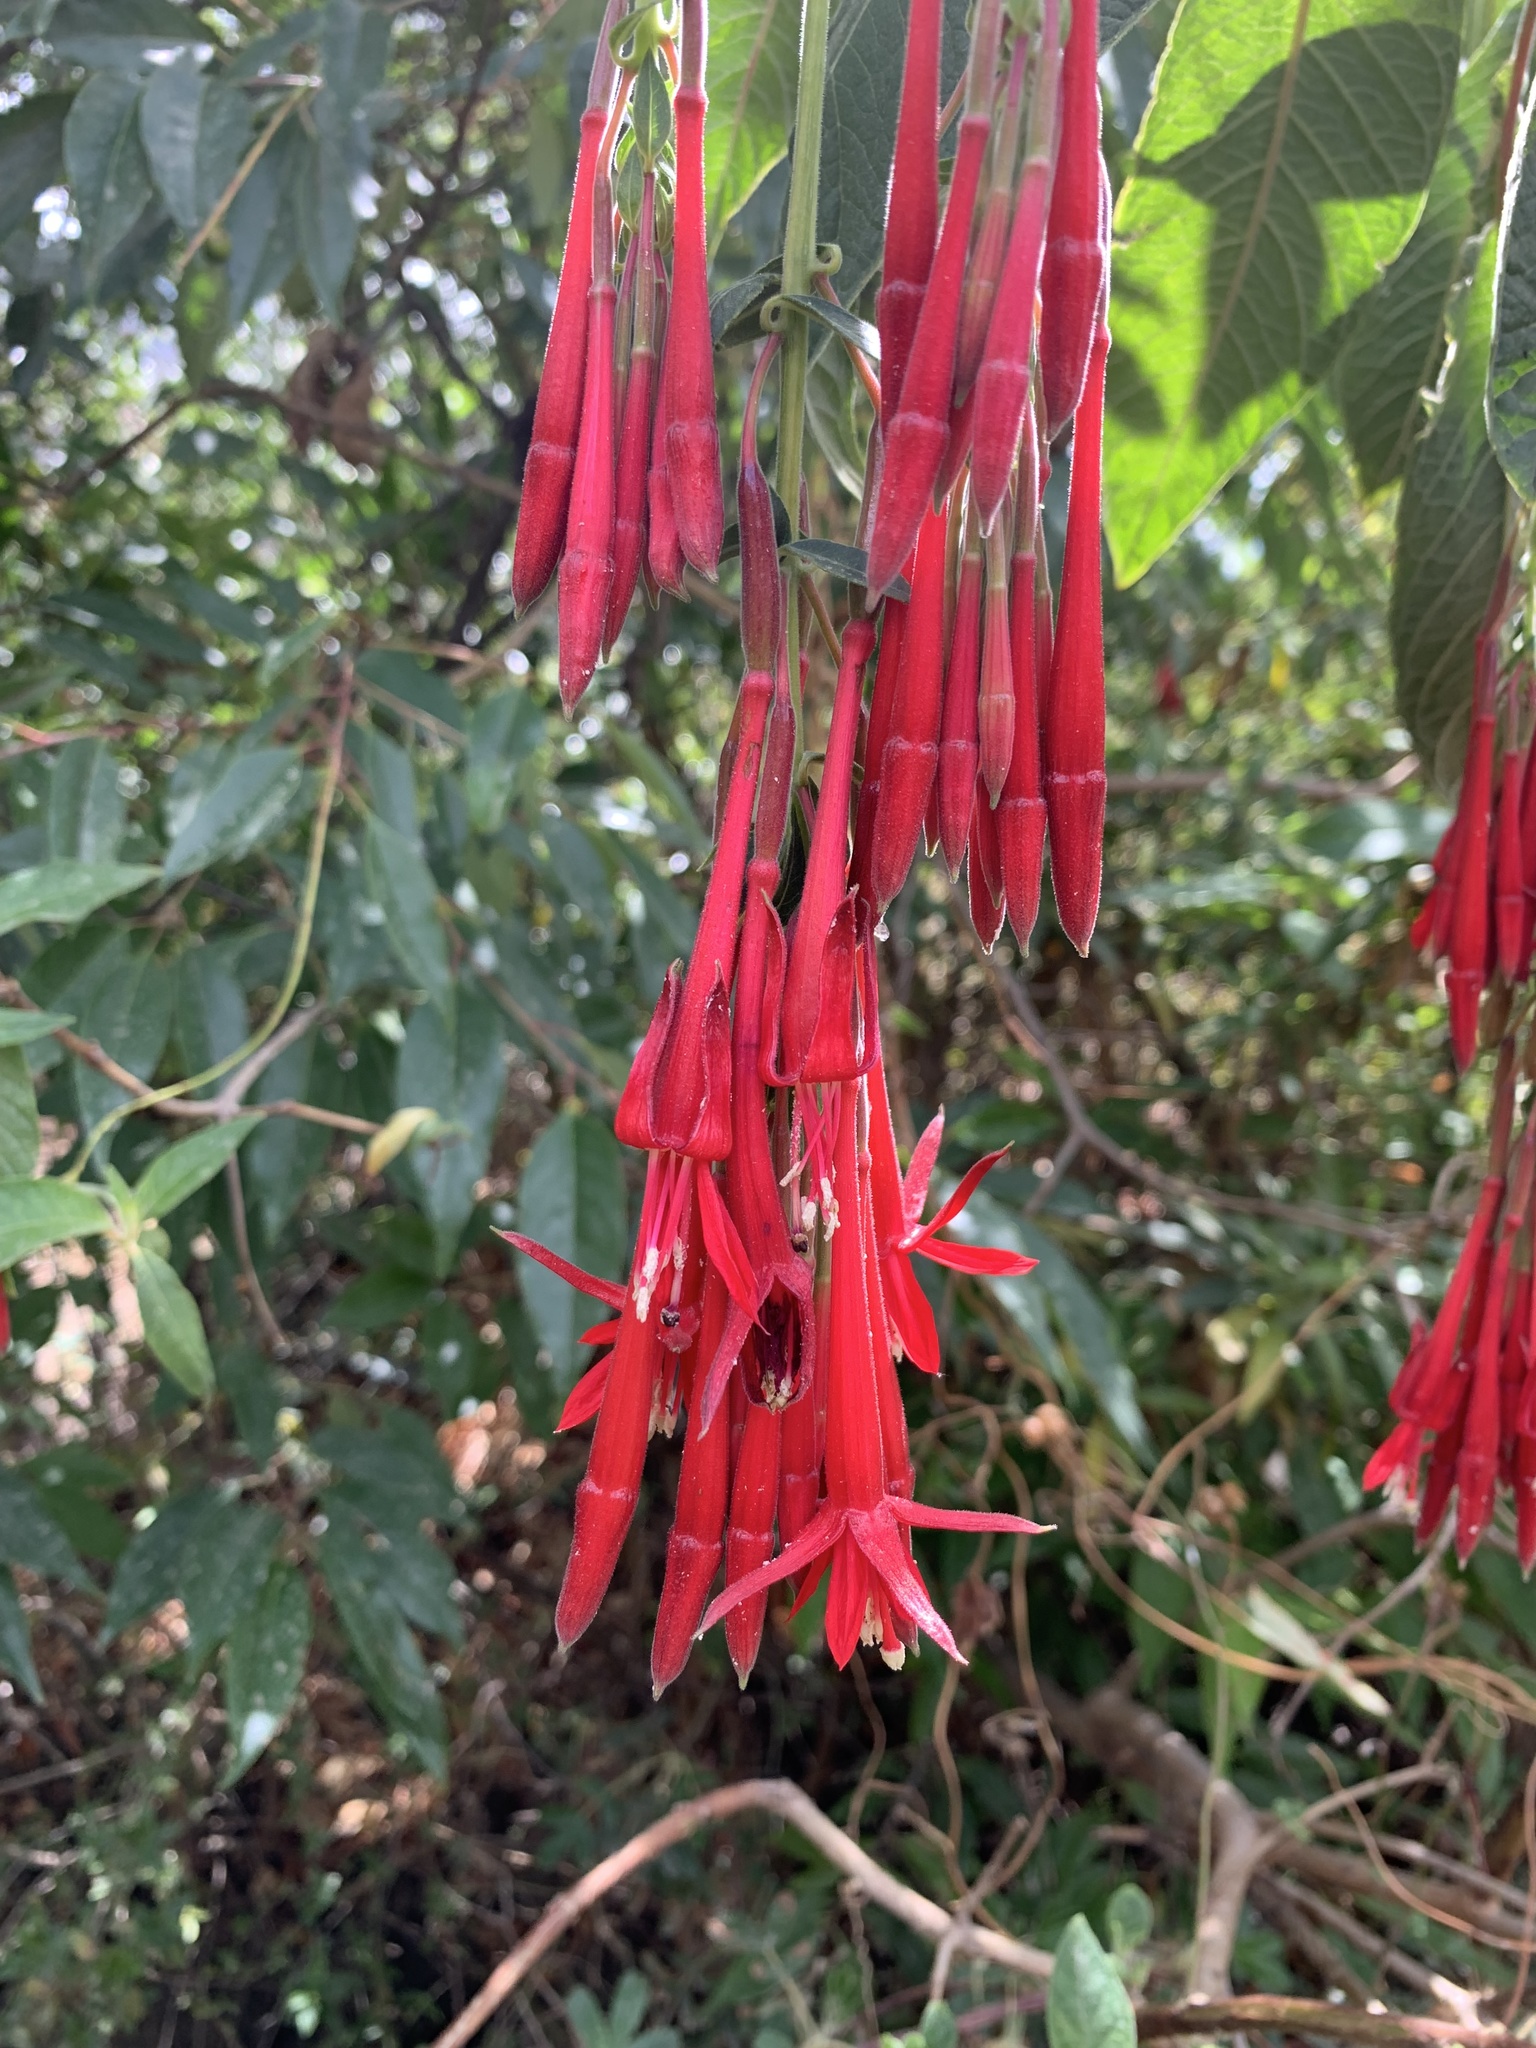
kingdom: Plantae
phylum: Tracheophyta
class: Magnoliopsida
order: Myrtales
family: Onagraceae
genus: Fuchsia
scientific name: Fuchsia boliviana
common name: Bolivian fuchsia
